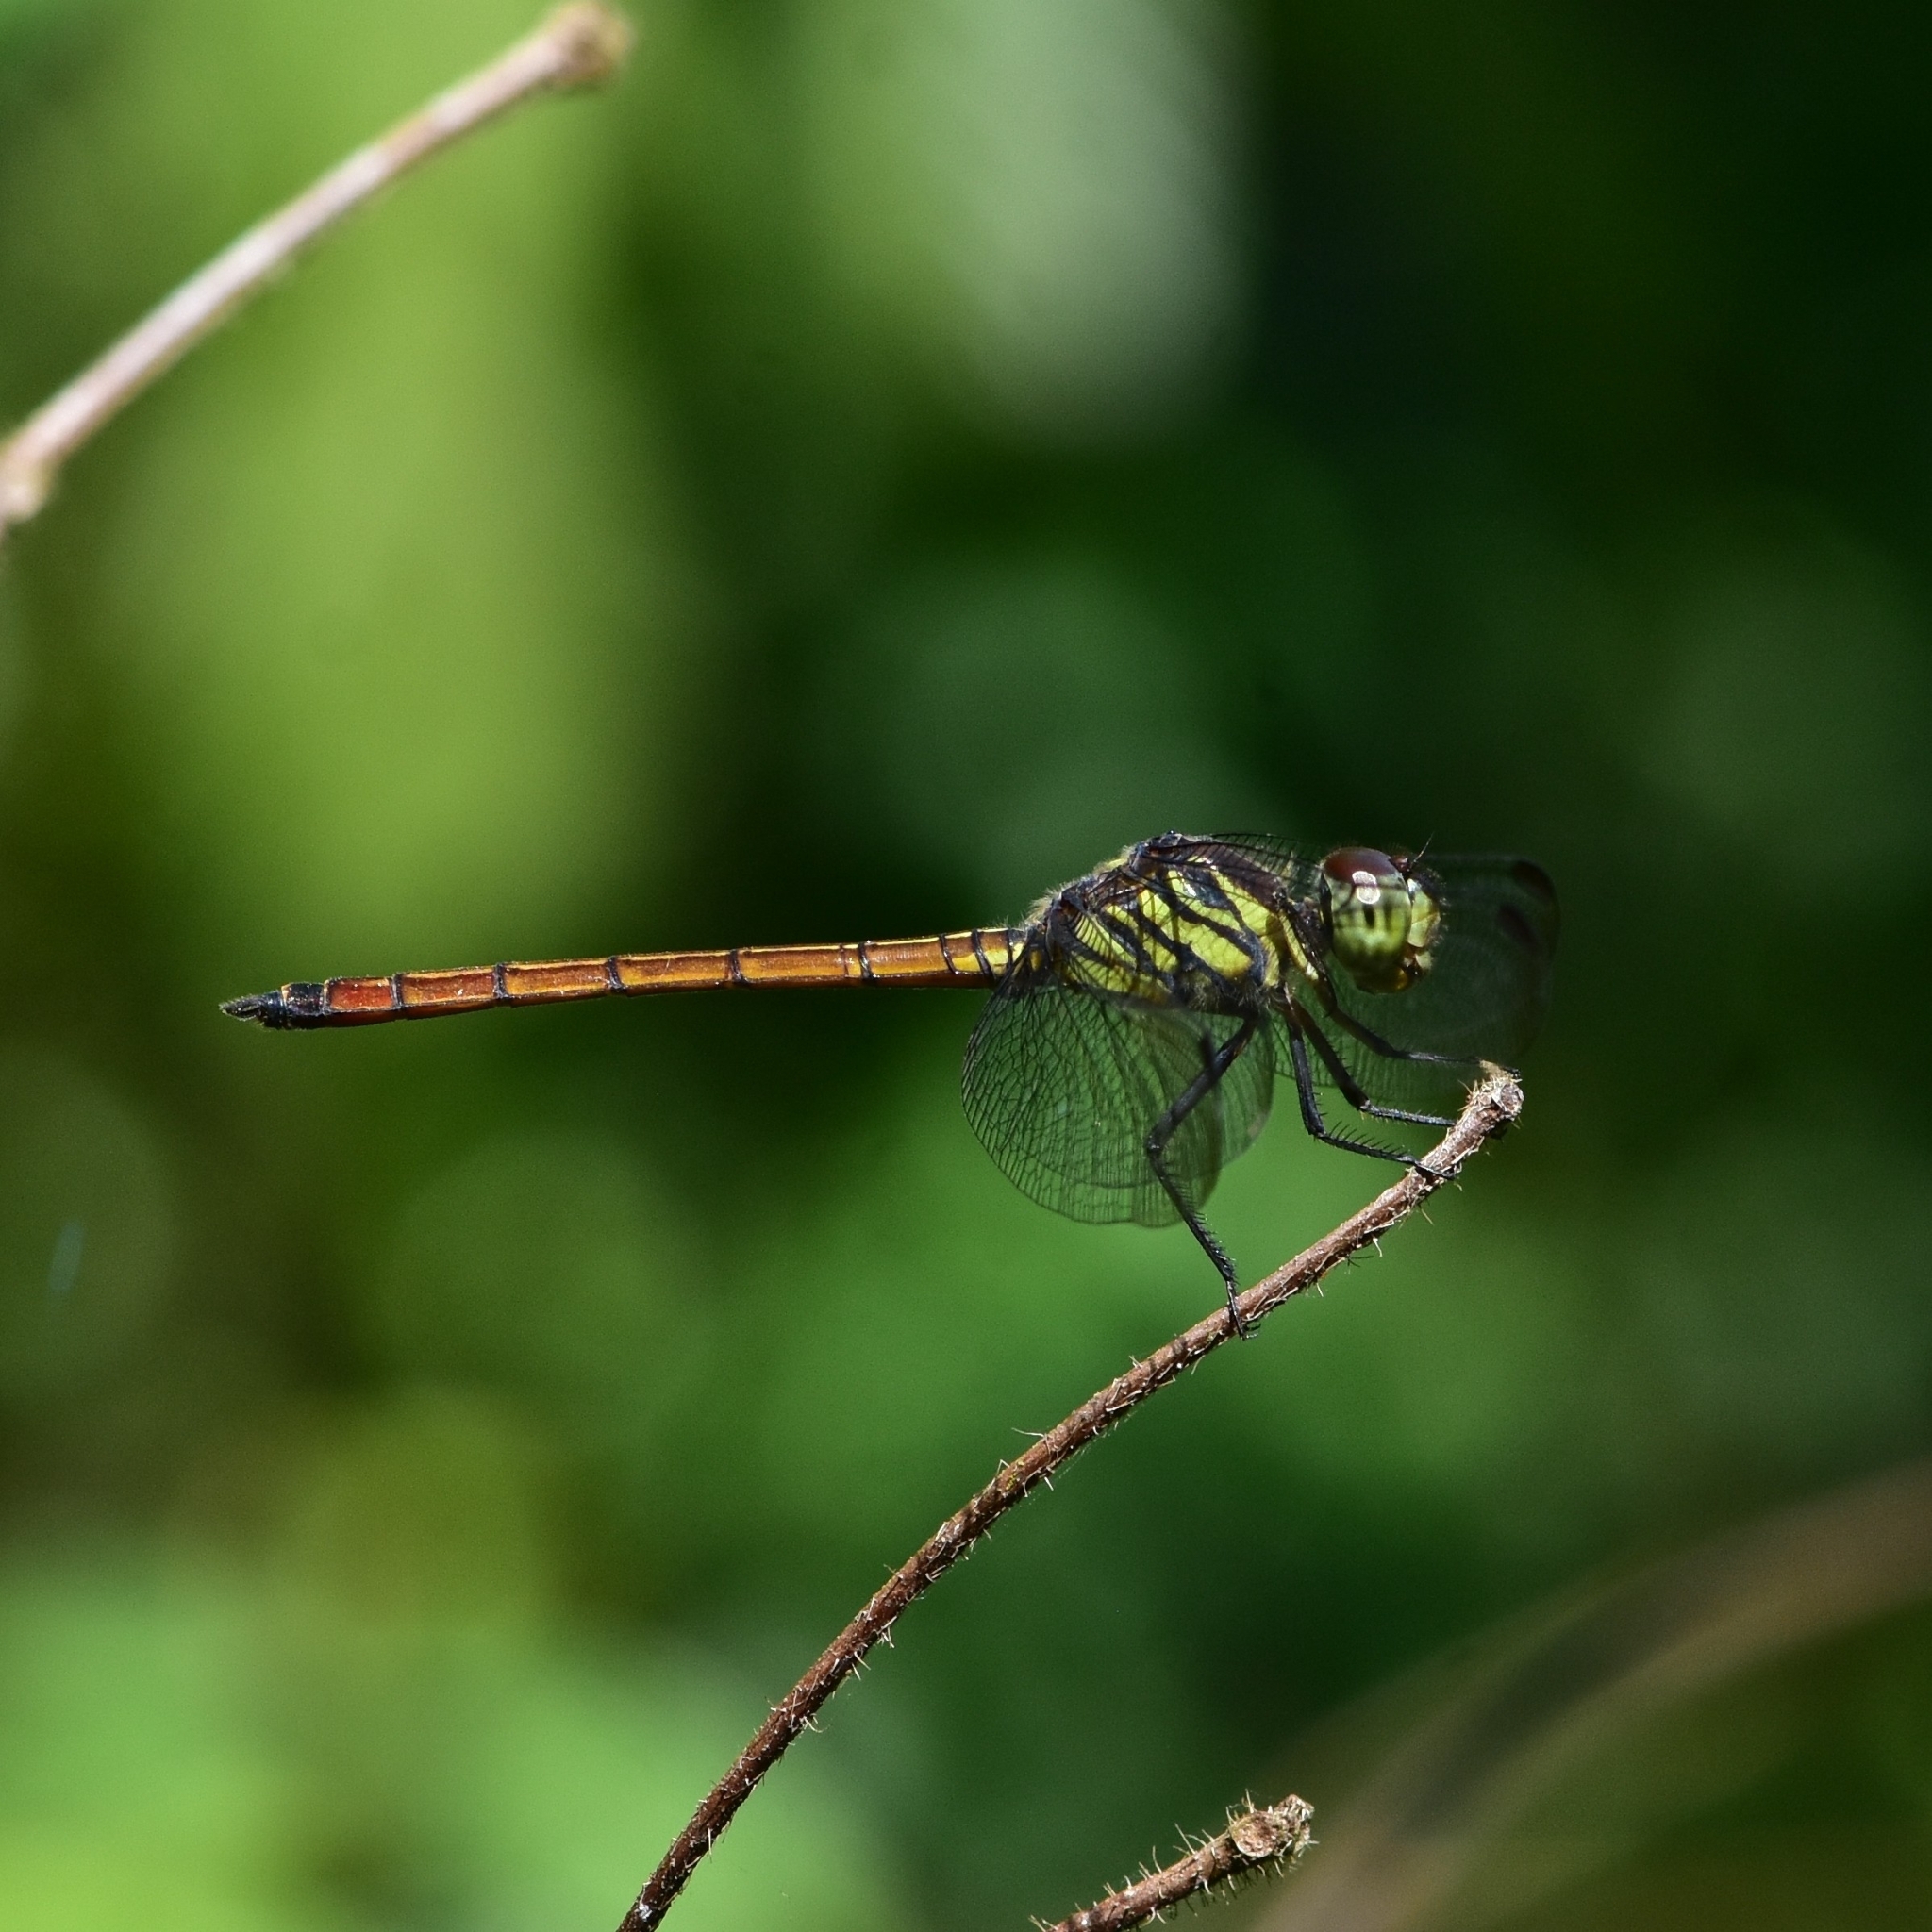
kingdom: Animalia
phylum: Arthropoda
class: Insecta
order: Odonata
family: Libellulidae
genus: Lathrecista
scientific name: Lathrecista asiatica
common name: Scarlet grenadier
